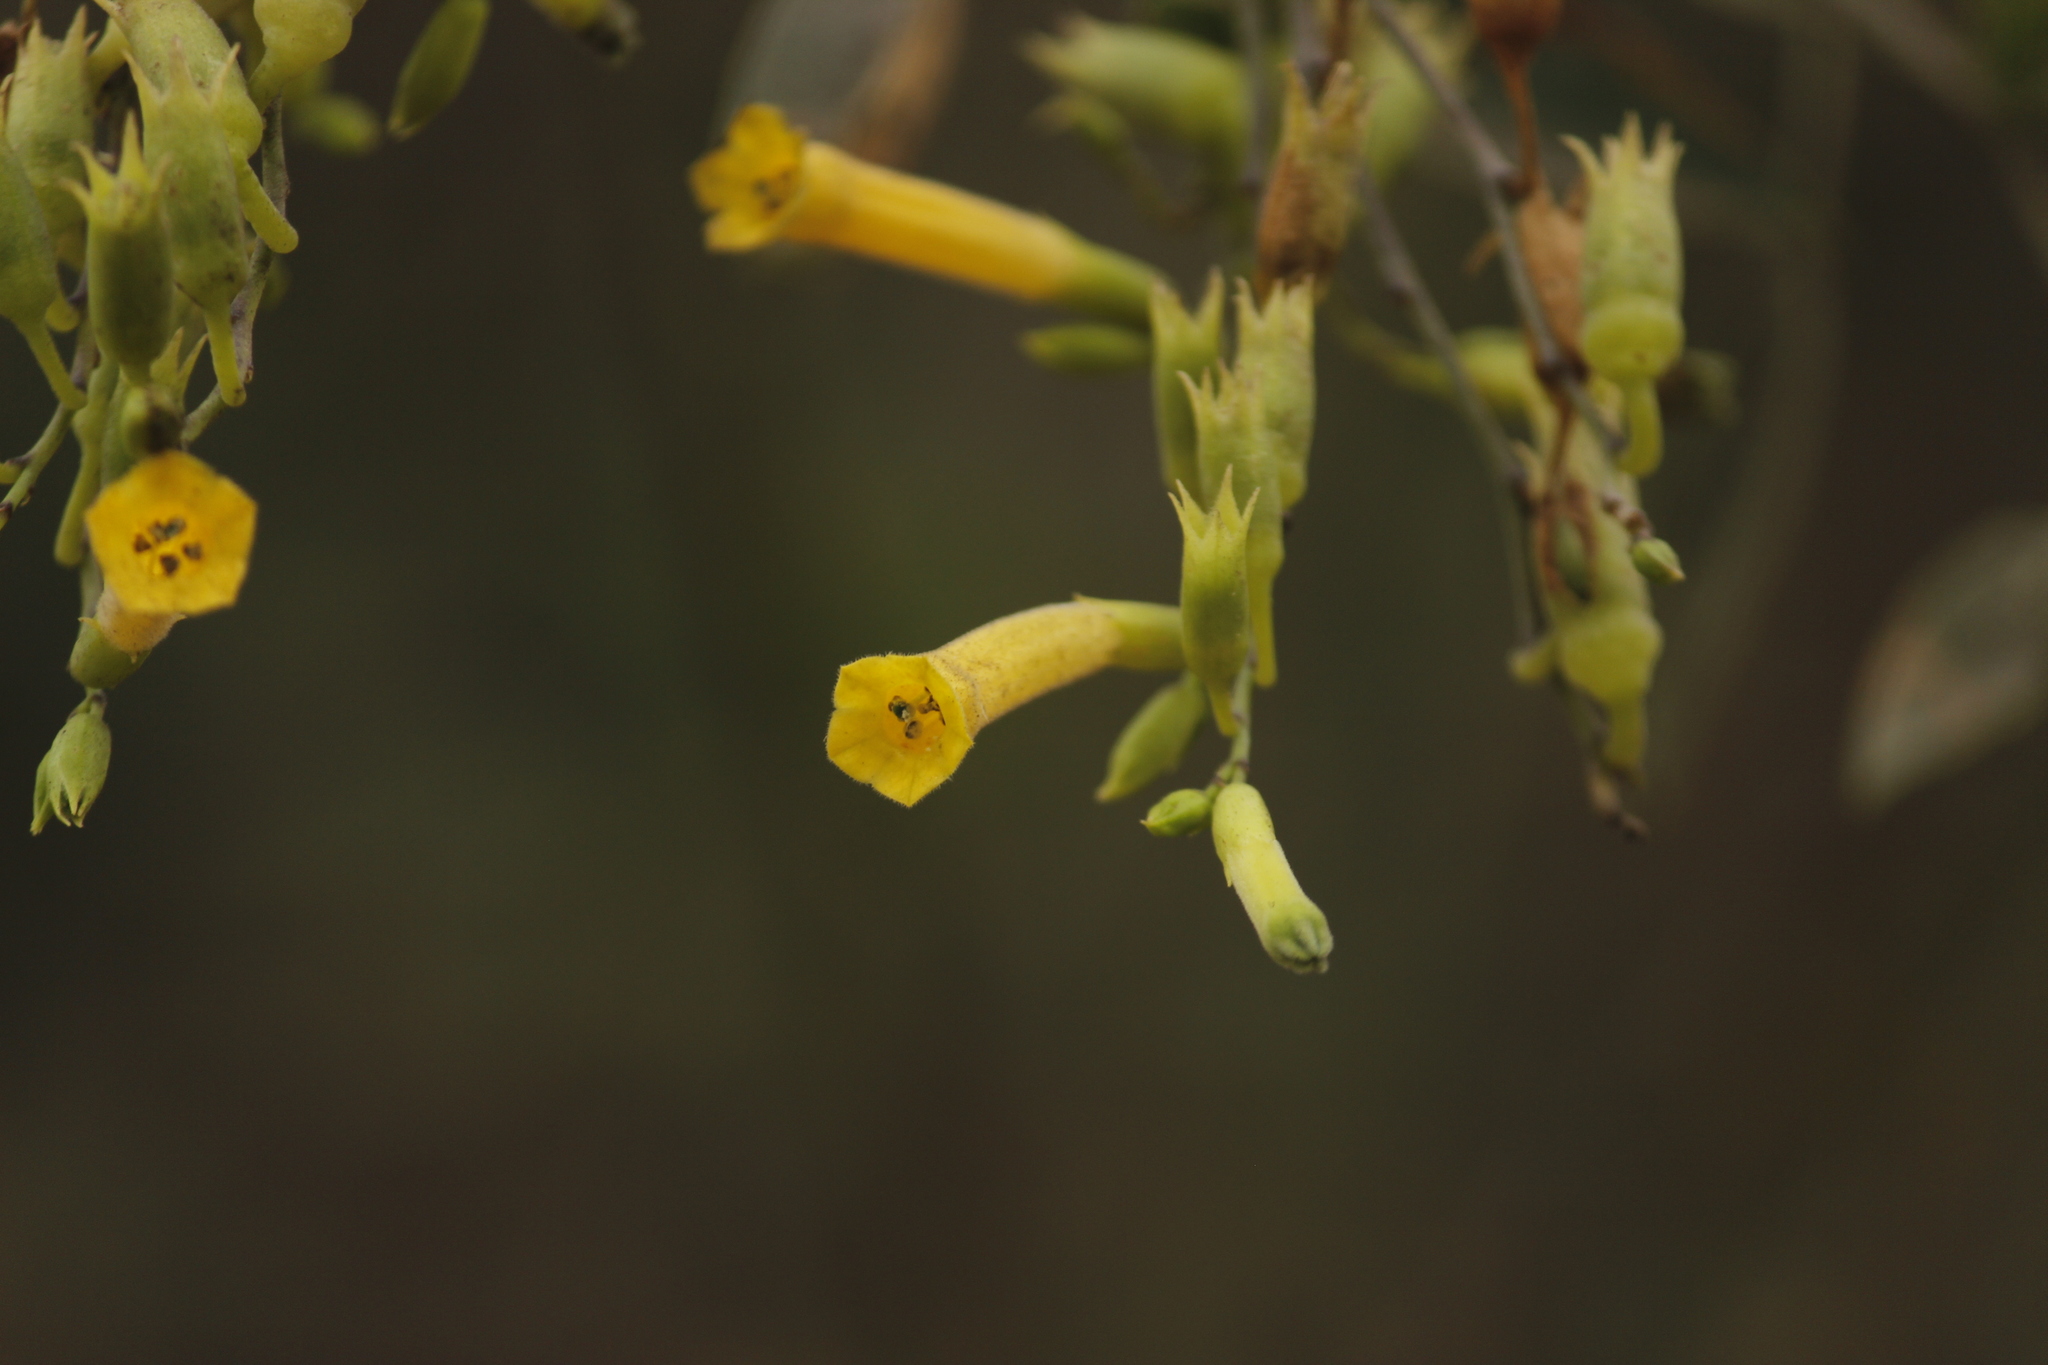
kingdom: Plantae
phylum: Tracheophyta
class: Magnoliopsida
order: Solanales
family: Solanaceae
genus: Nicotiana
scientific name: Nicotiana glauca
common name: Tree tobacco
